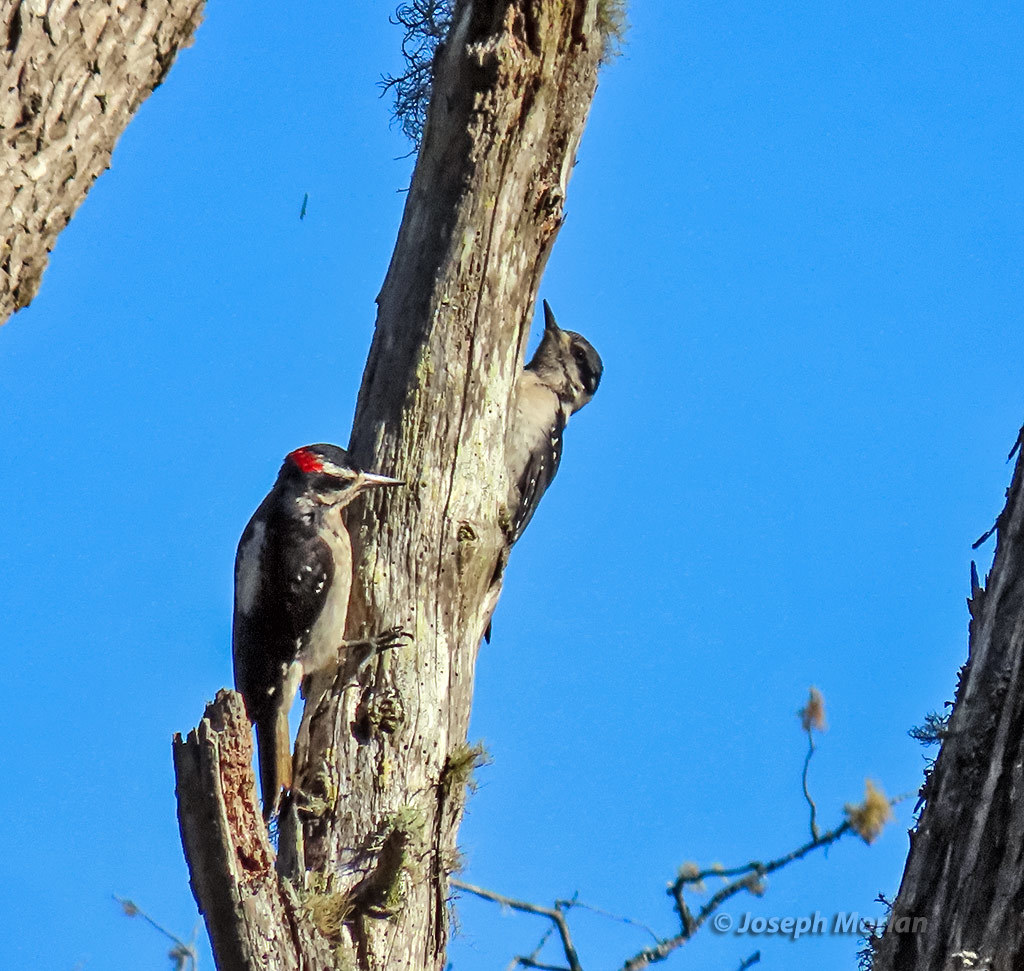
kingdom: Animalia
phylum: Chordata
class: Aves
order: Piciformes
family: Picidae
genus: Leuconotopicus
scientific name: Leuconotopicus villosus
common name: Hairy woodpecker
